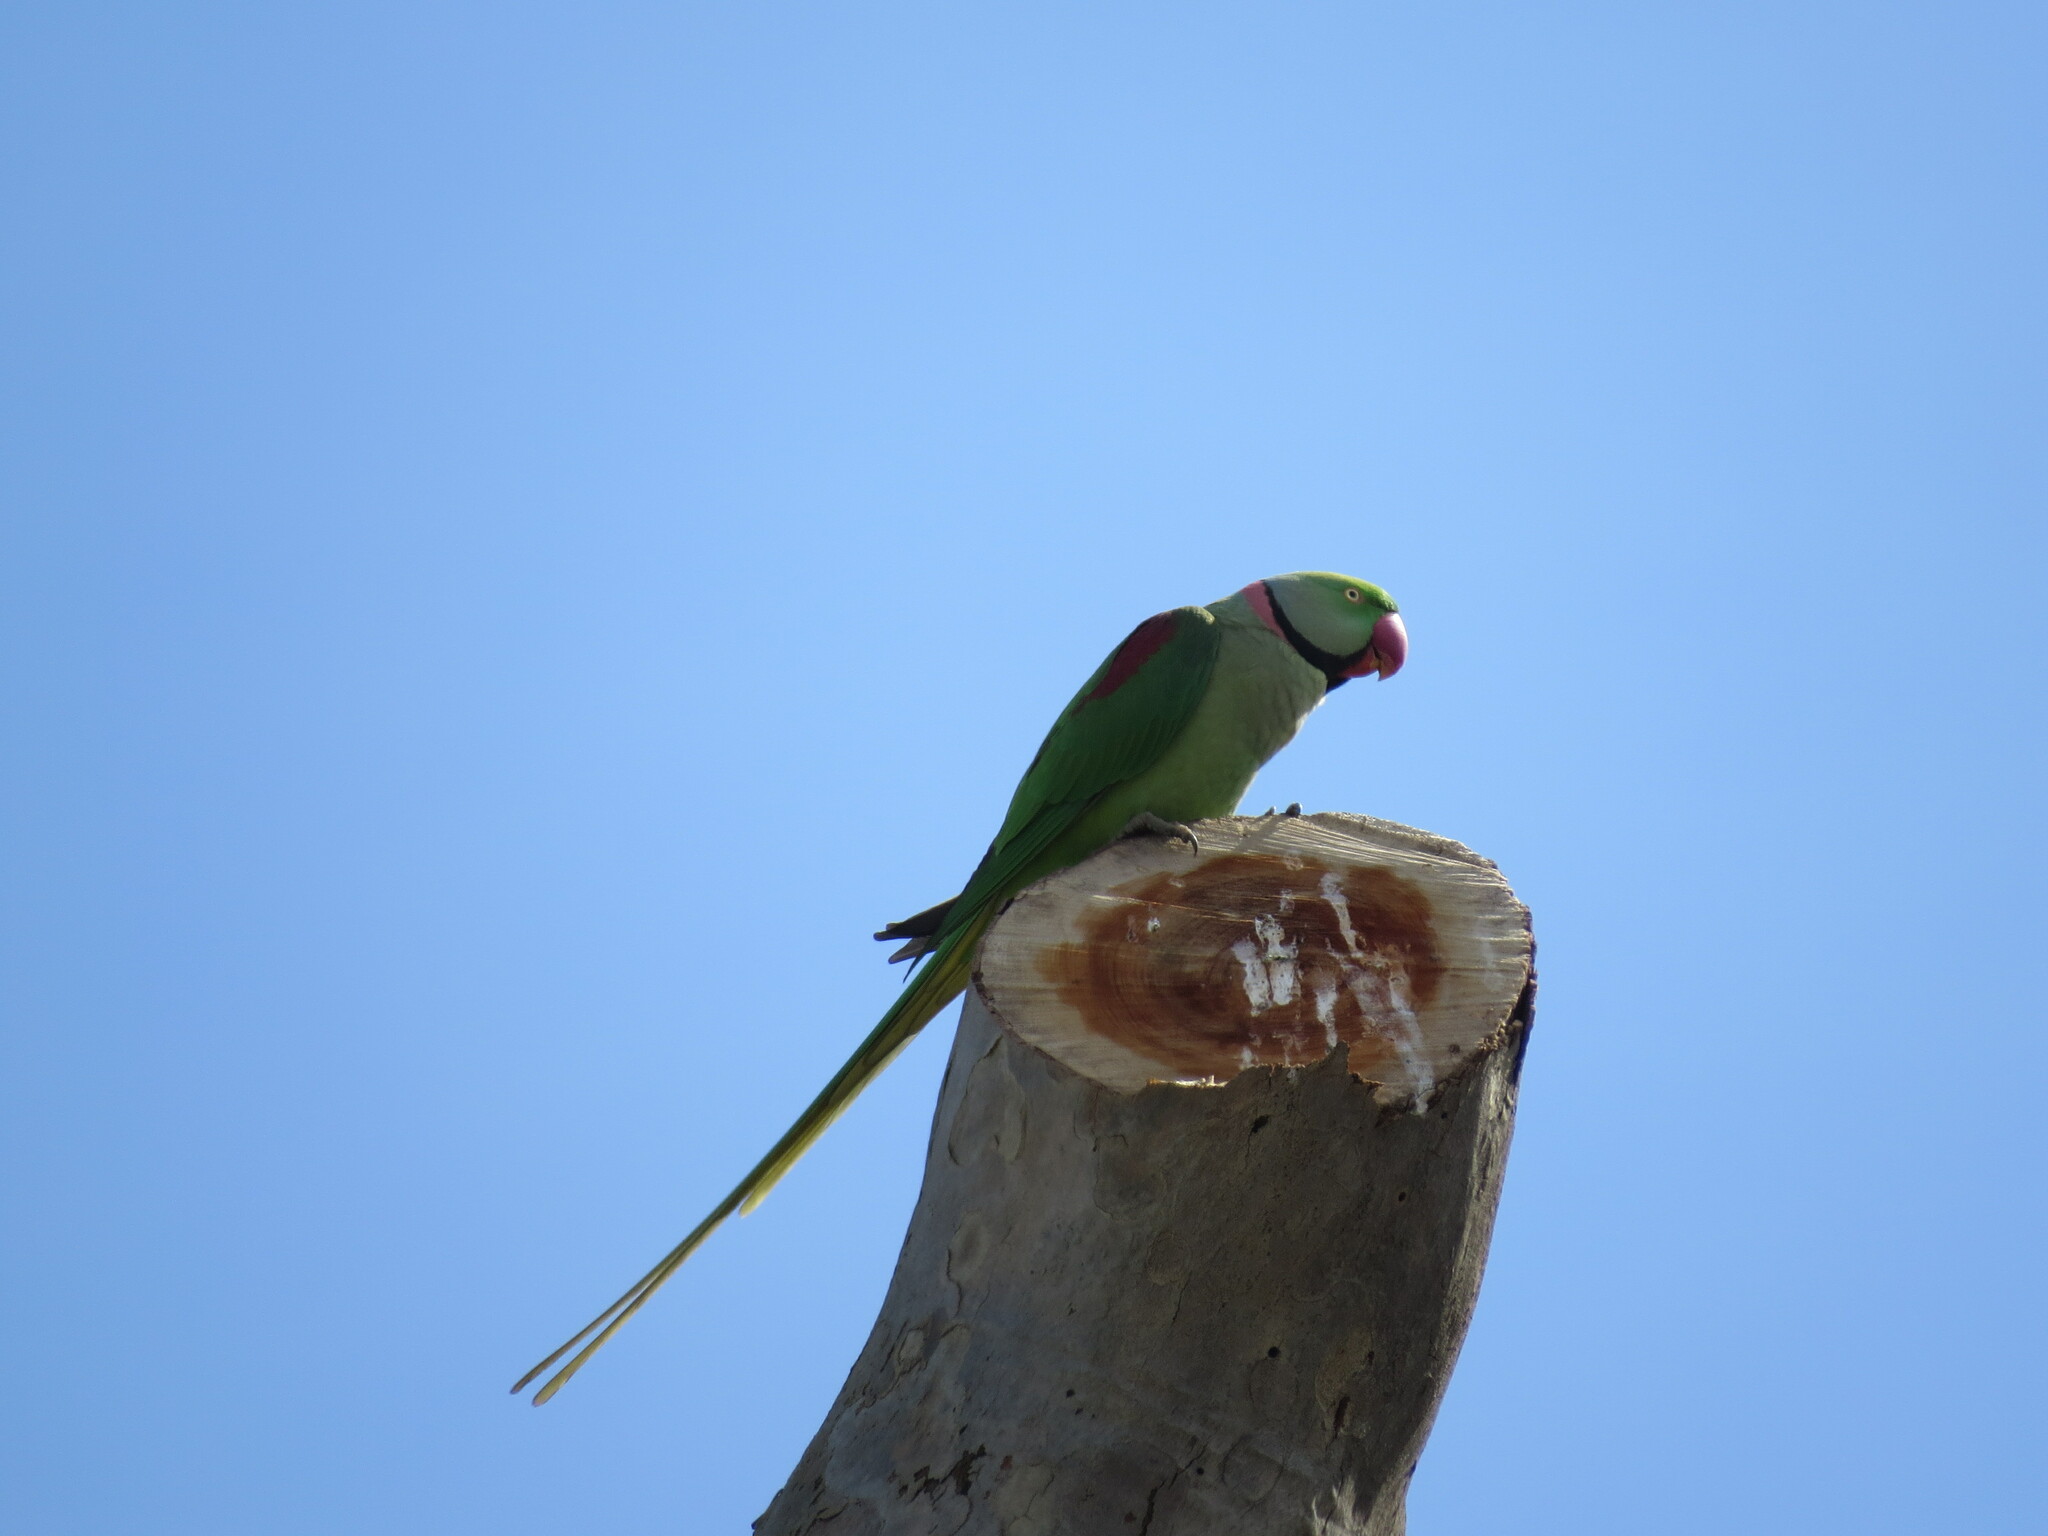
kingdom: Animalia
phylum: Chordata
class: Aves
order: Psittaciformes
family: Psittacidae
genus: Psittacula
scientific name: Psittacula eupatria
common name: Alexandrine parakeet
